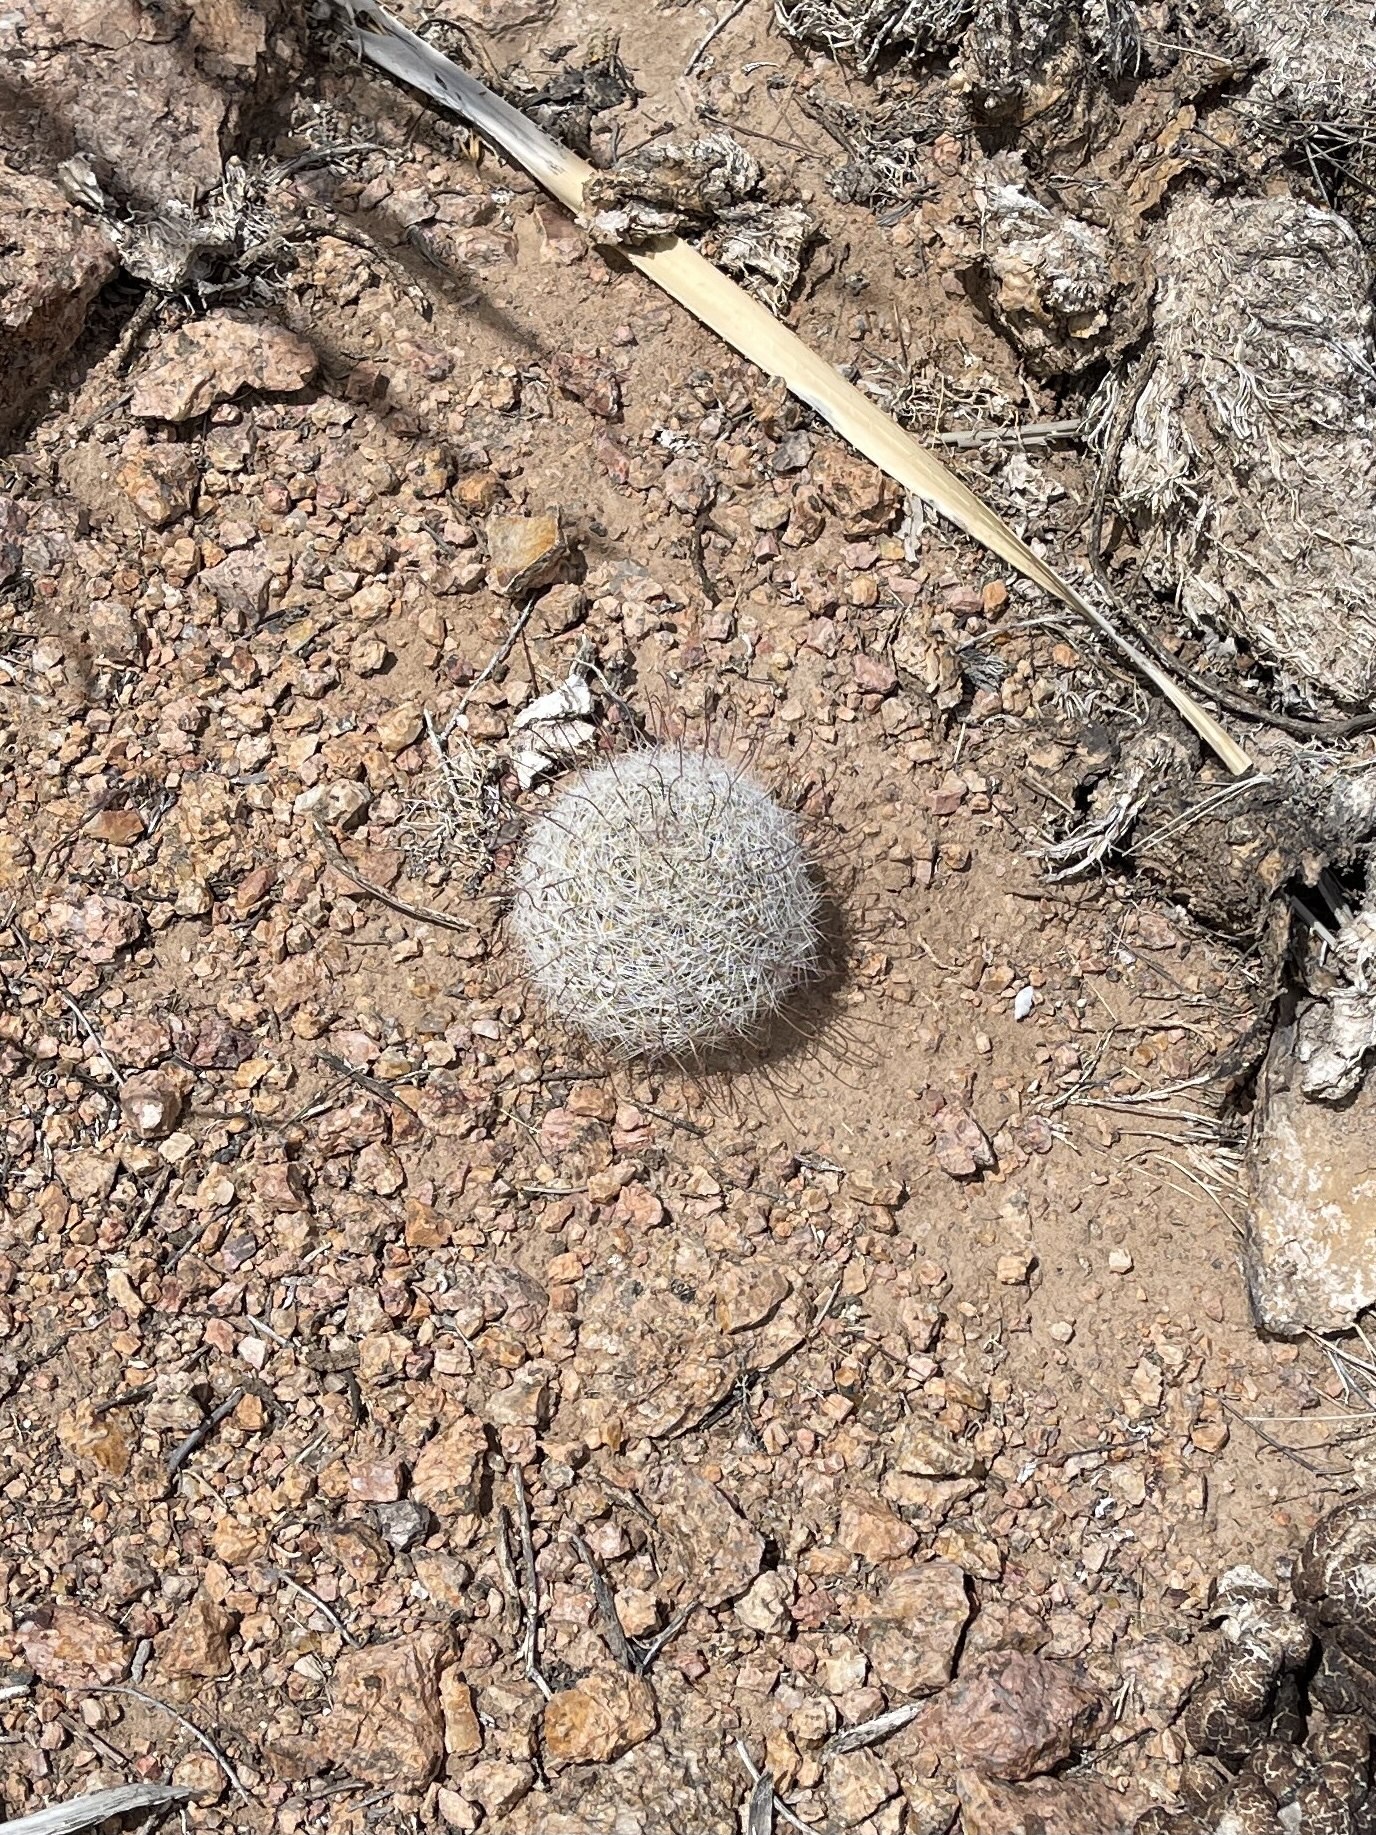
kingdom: Plantae
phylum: Tracheophyta
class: Magnoliopsida
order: Caryophyllales
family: Cactaceae
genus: Cochemiea
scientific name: Cochemiea grahamii
